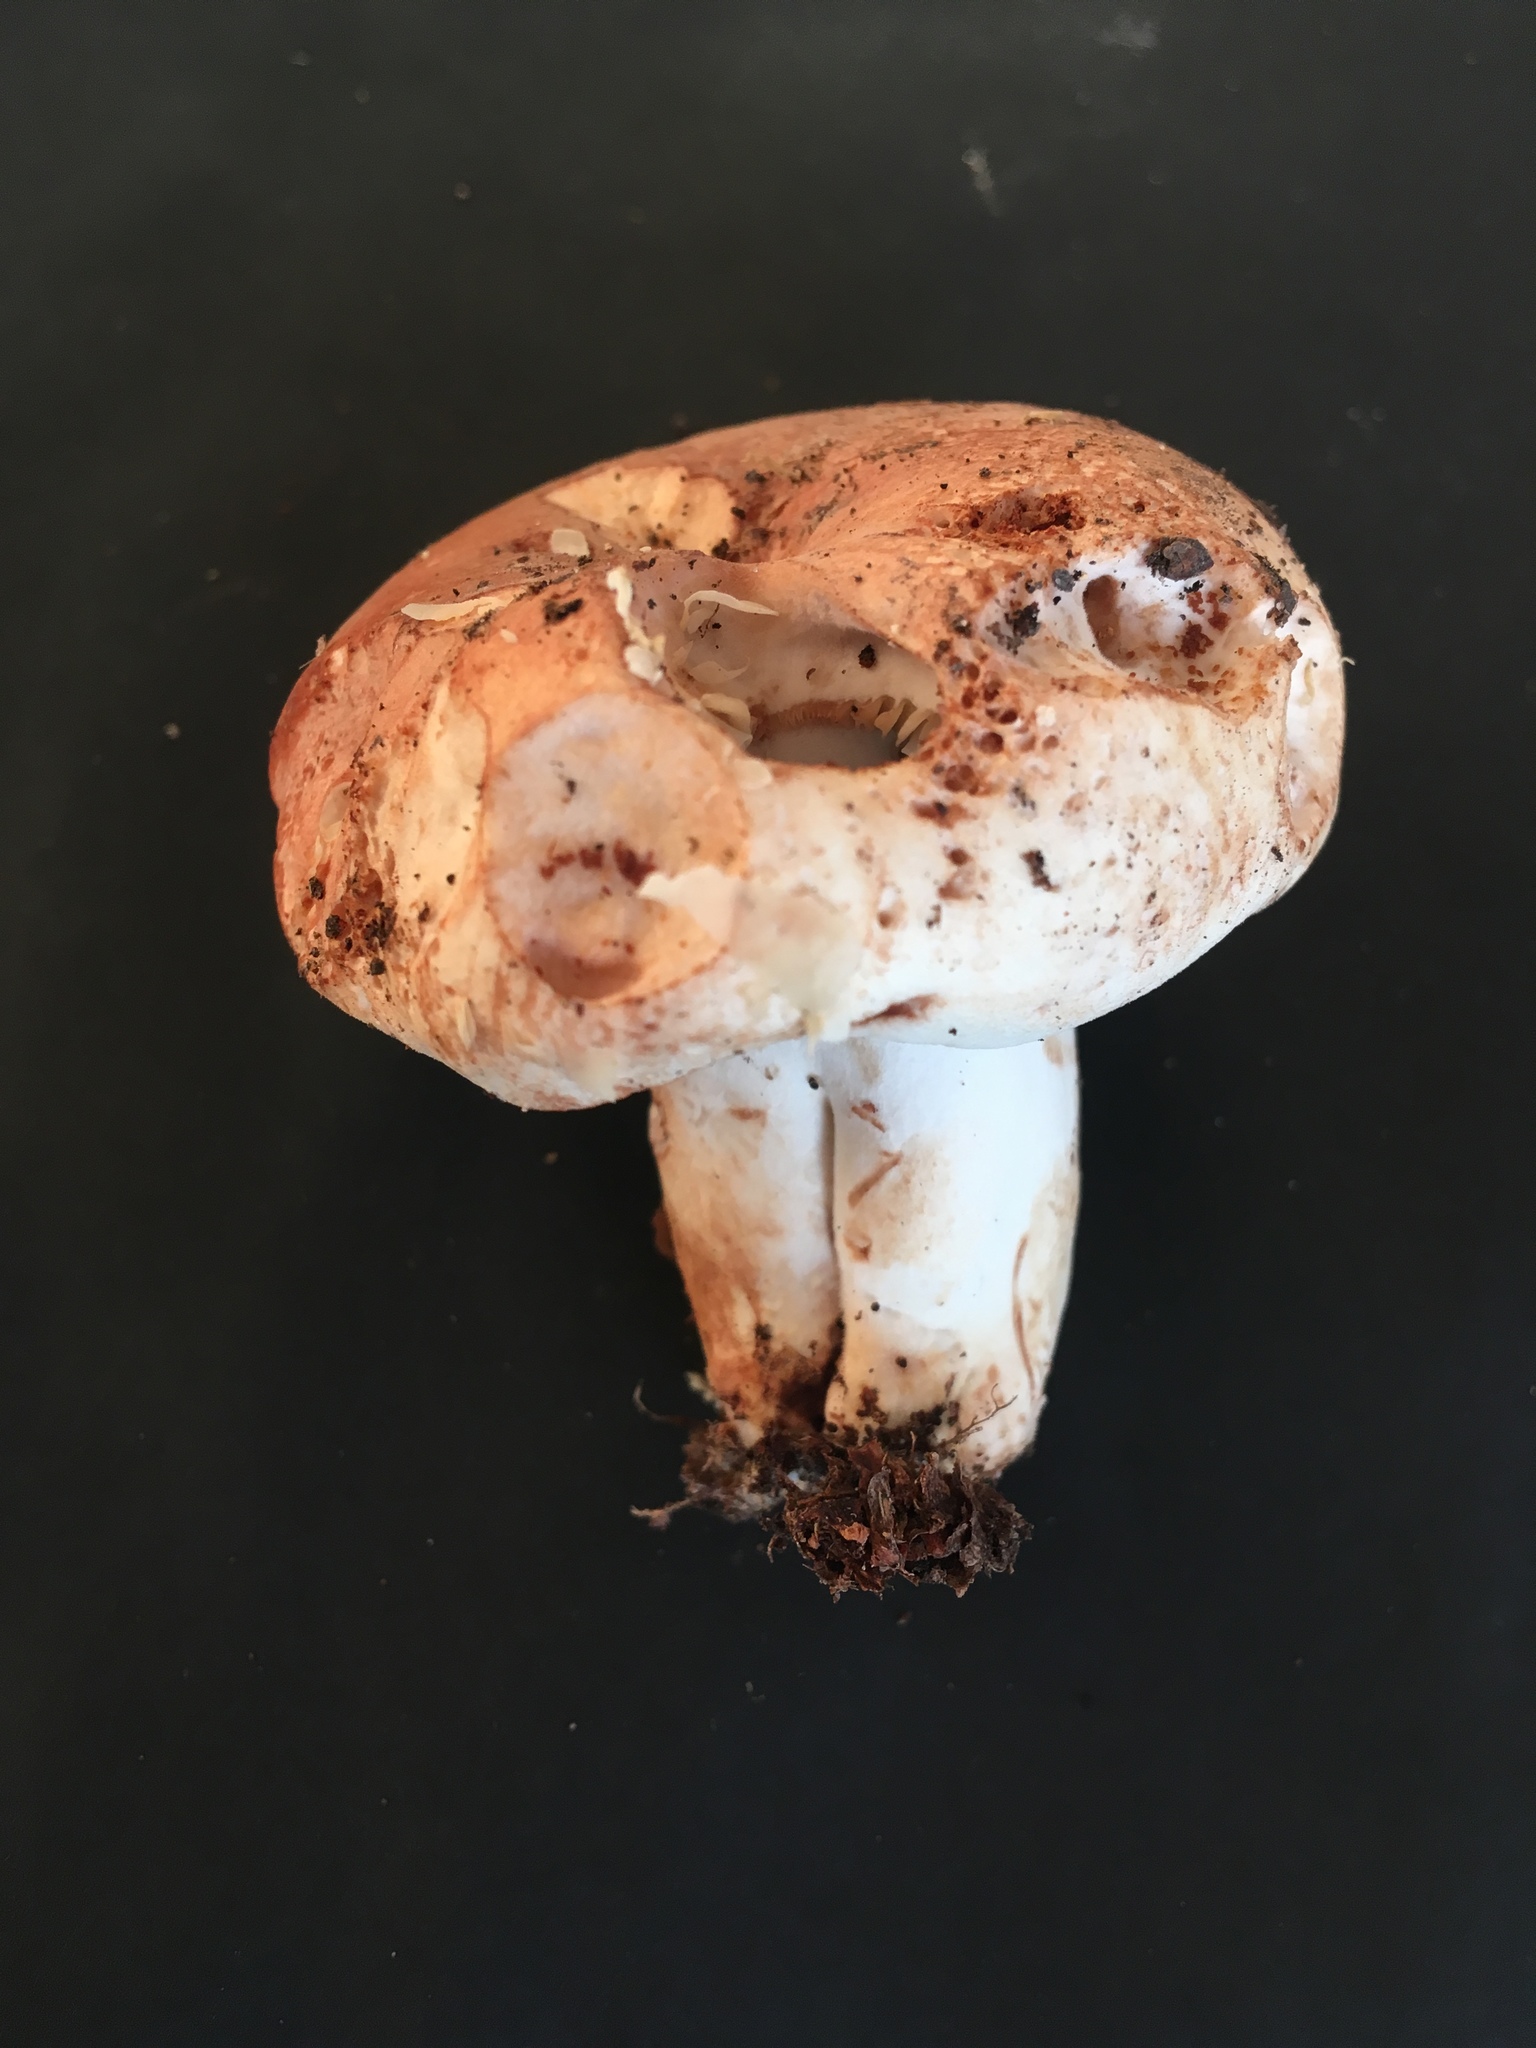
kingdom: Fungi
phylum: Basidiomycota
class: Agaricomycetes
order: Russulales
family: Russulaceae
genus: Russula
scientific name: Russula compacta
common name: Fishbiscuit russula
